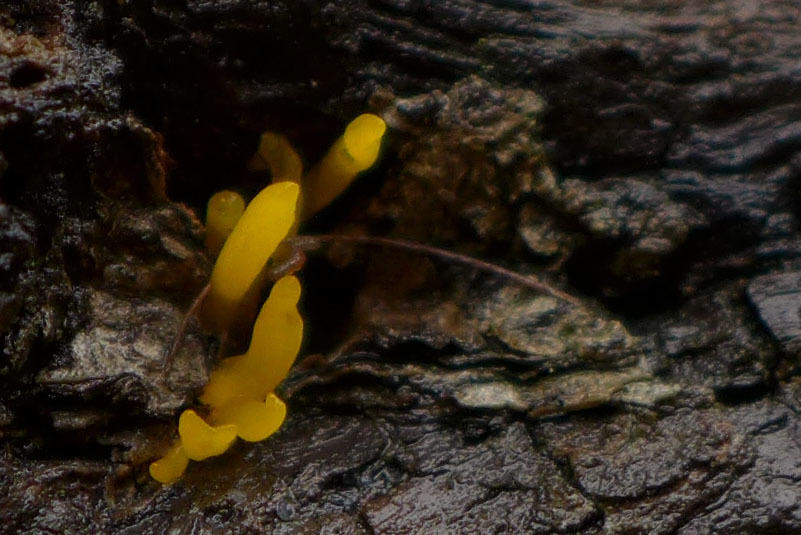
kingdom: Fungi
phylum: Basidiomycota
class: Dacrymycetes
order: Dacrymycetales
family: Dacrymycetaceae
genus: Calocera
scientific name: Calocera cornea
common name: Small stagshorn
